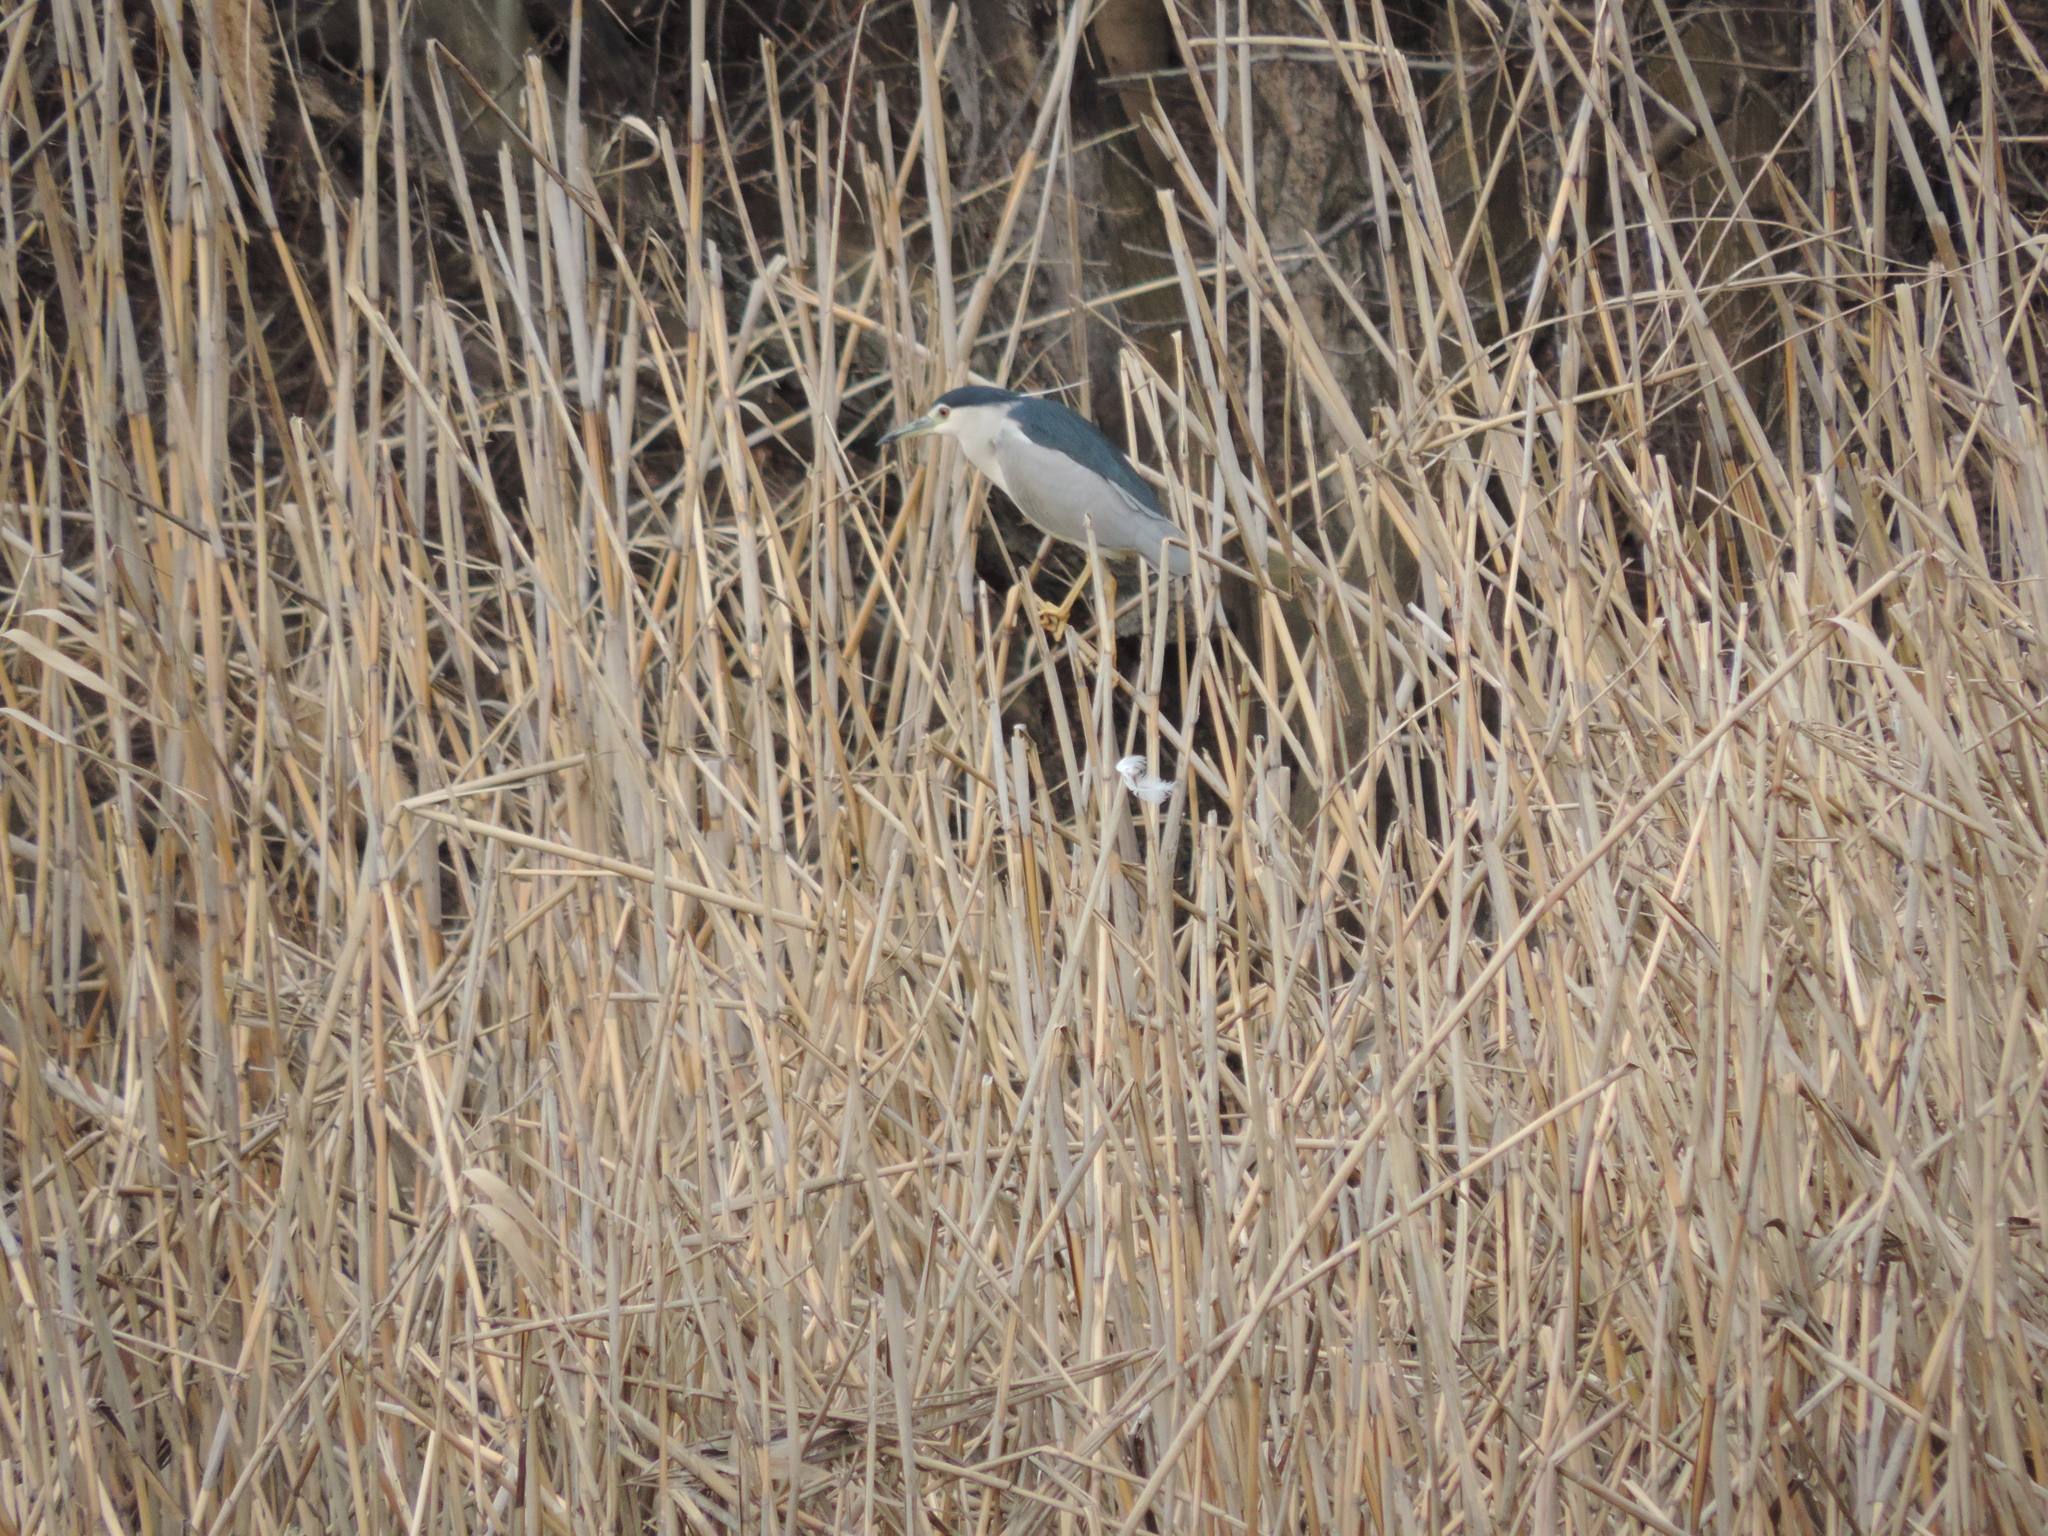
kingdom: Animalia
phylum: Chordata
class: Aves
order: Pelecaniformes
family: Ardeidae
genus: Nycticorax
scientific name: Nycticorax nycticorax
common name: Black-crowned night heron
